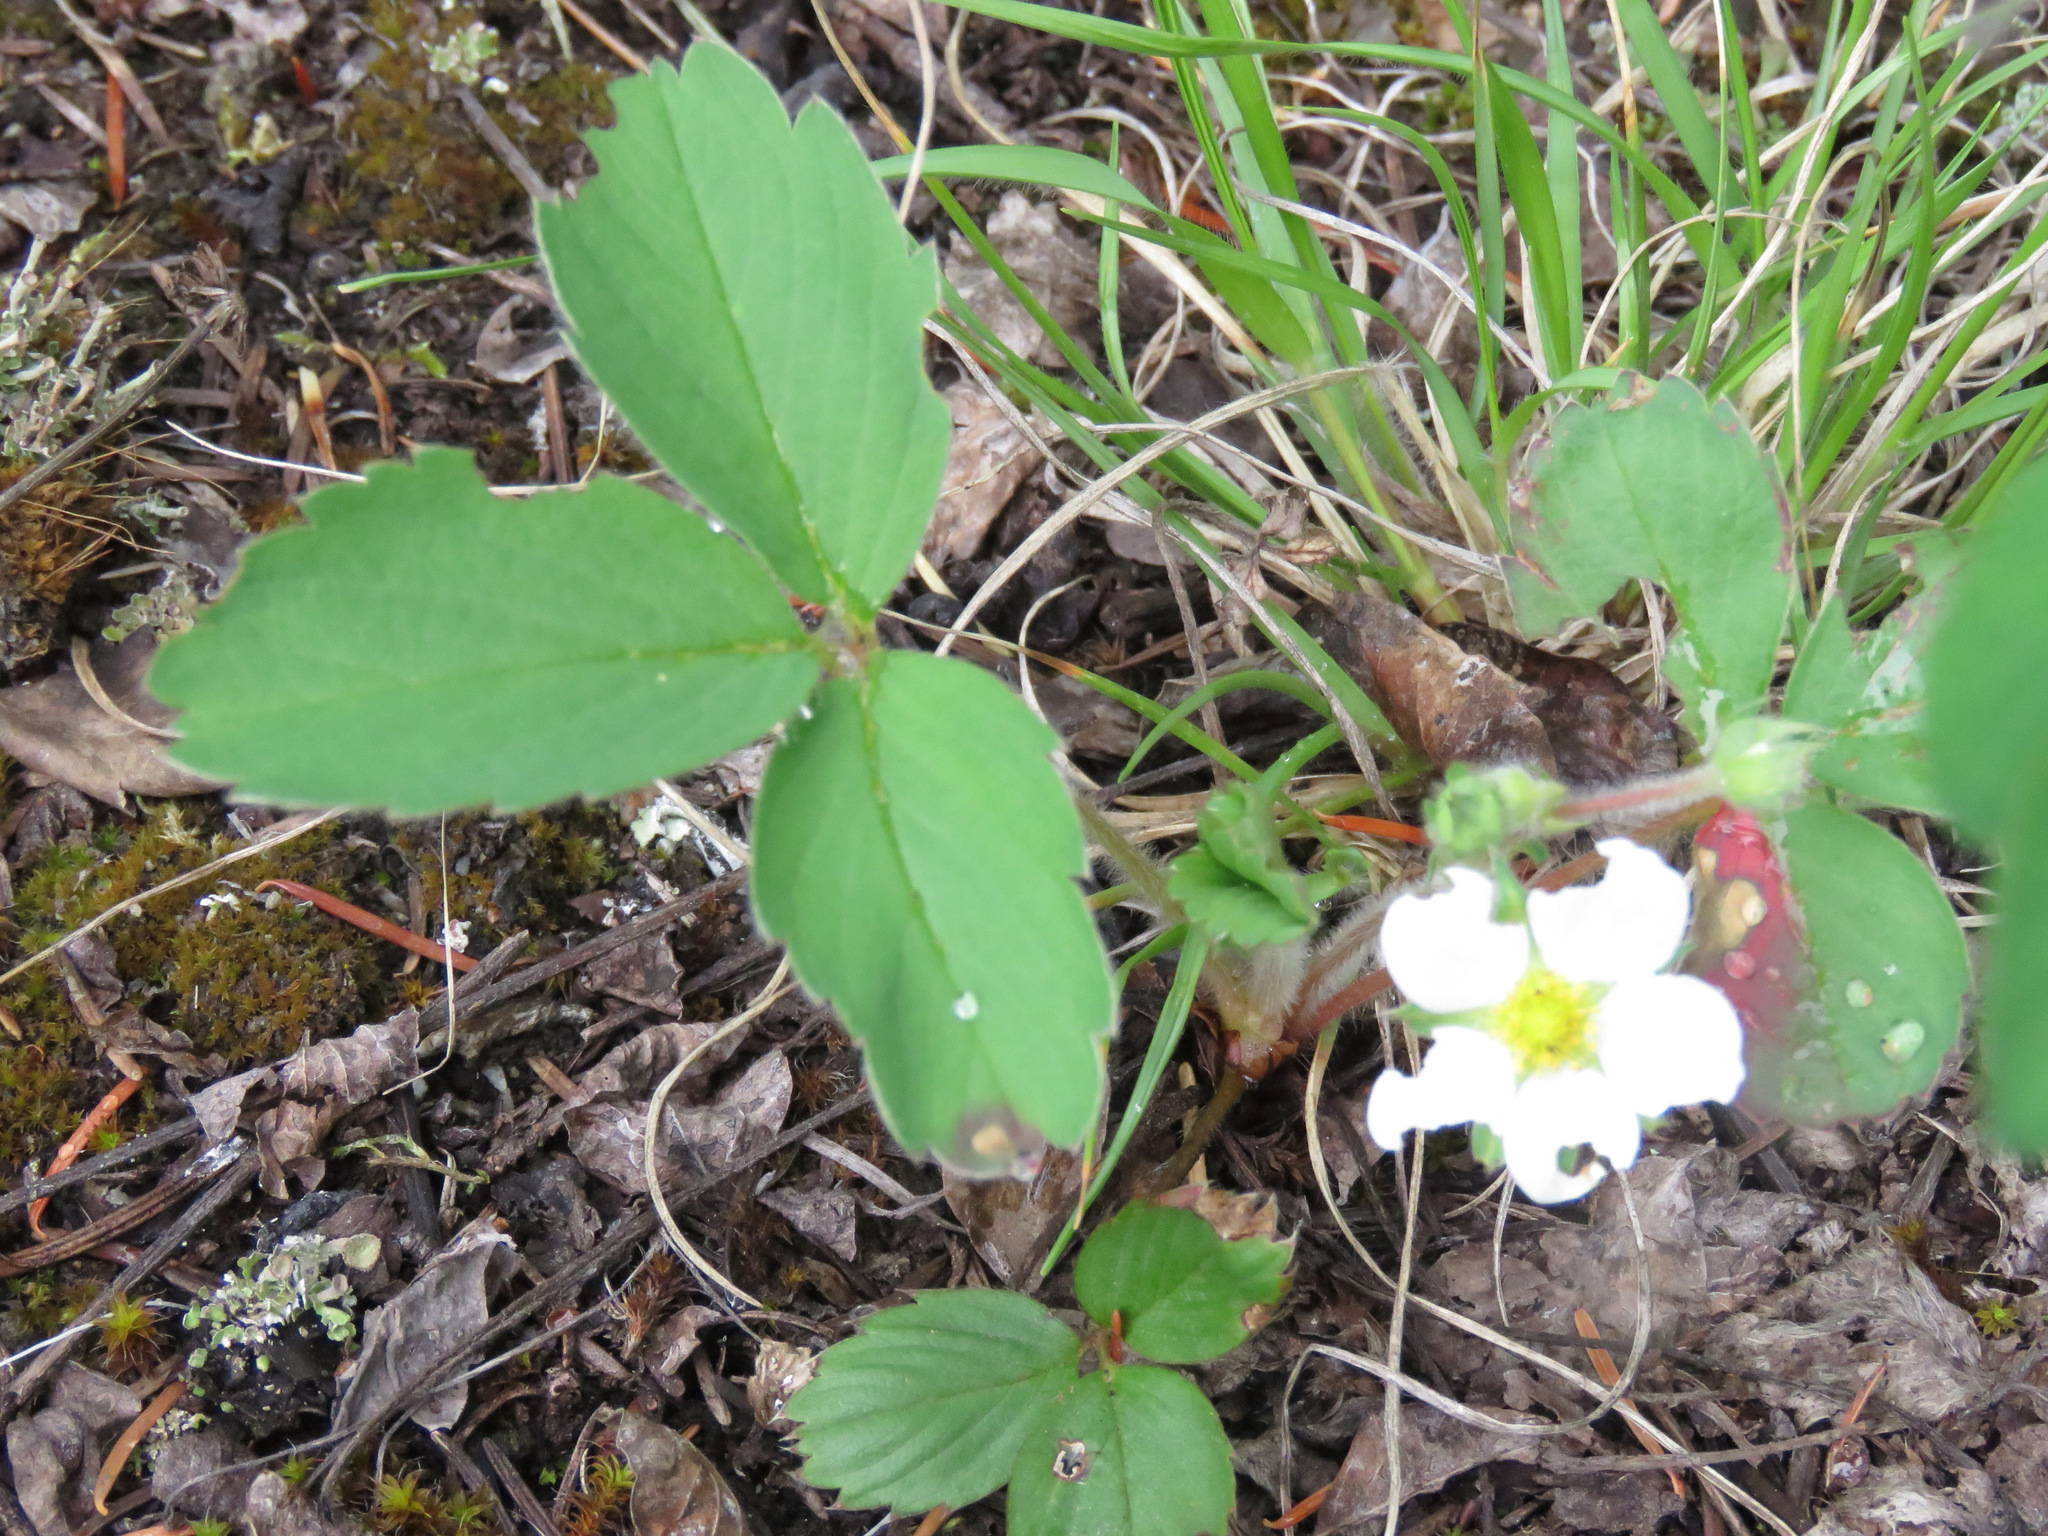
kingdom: Plantae
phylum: Tracheophyta
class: Magnoliopsida
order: Rosales
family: Rosaceae
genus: Fragaria
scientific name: Fragaria virginiana
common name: Thickleaved wild strawberry
